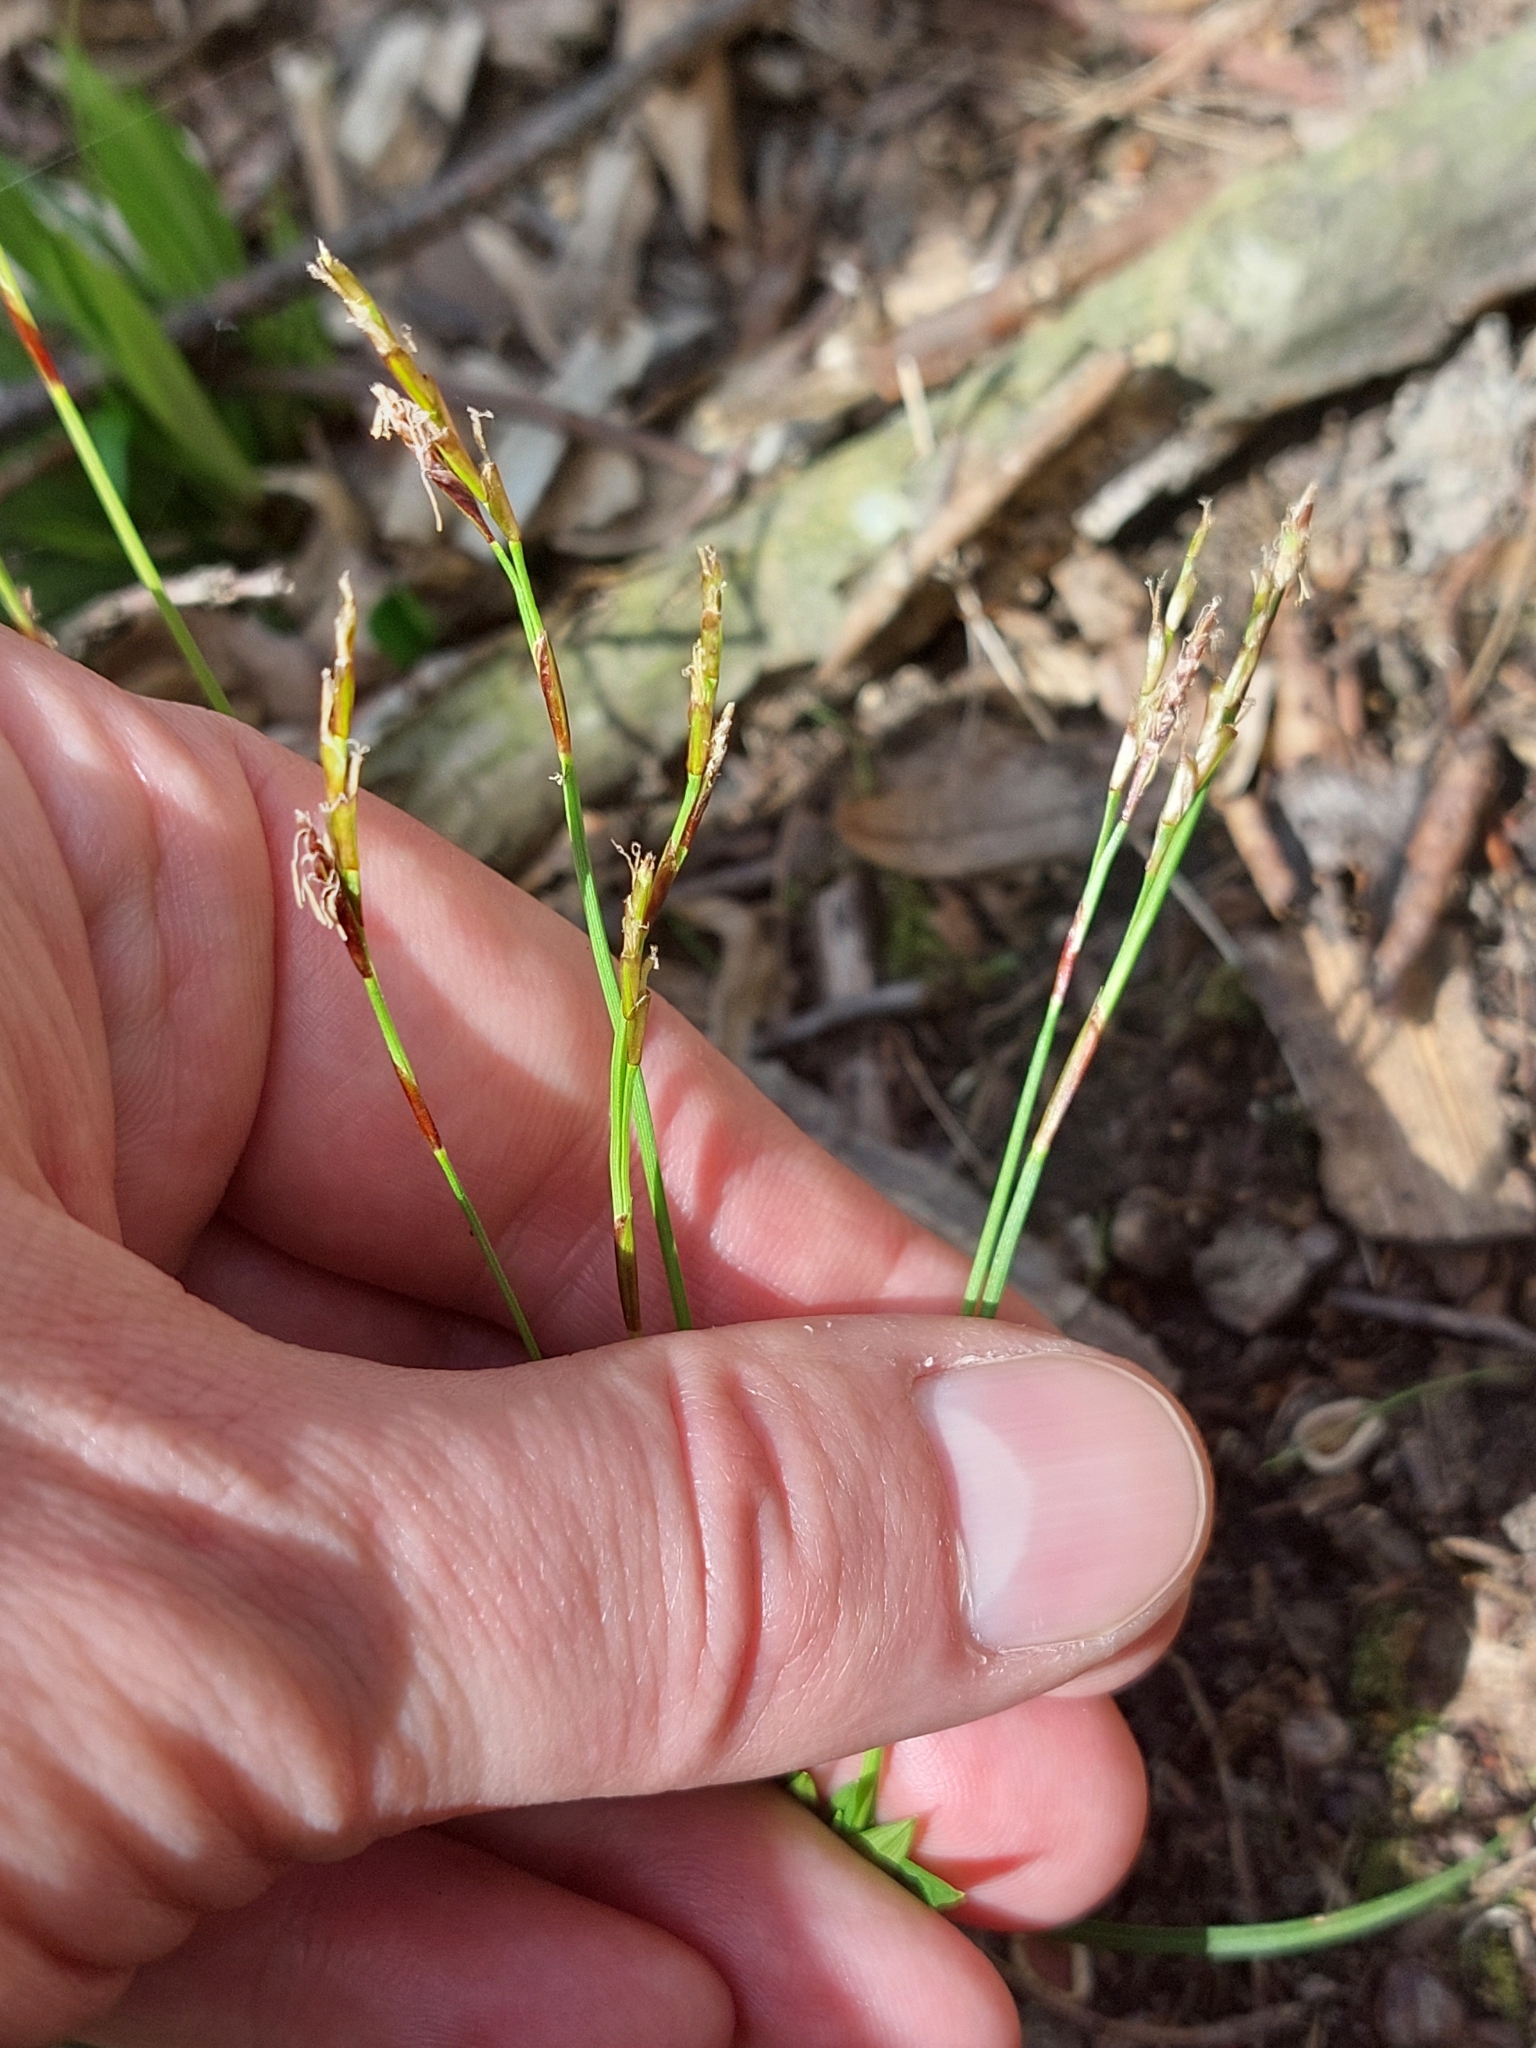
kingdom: Plantae
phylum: Tracheophyta
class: Liliopsida
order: Poales
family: Cyperaceae
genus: Carex
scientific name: Carex digitata
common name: Fingered sedge
